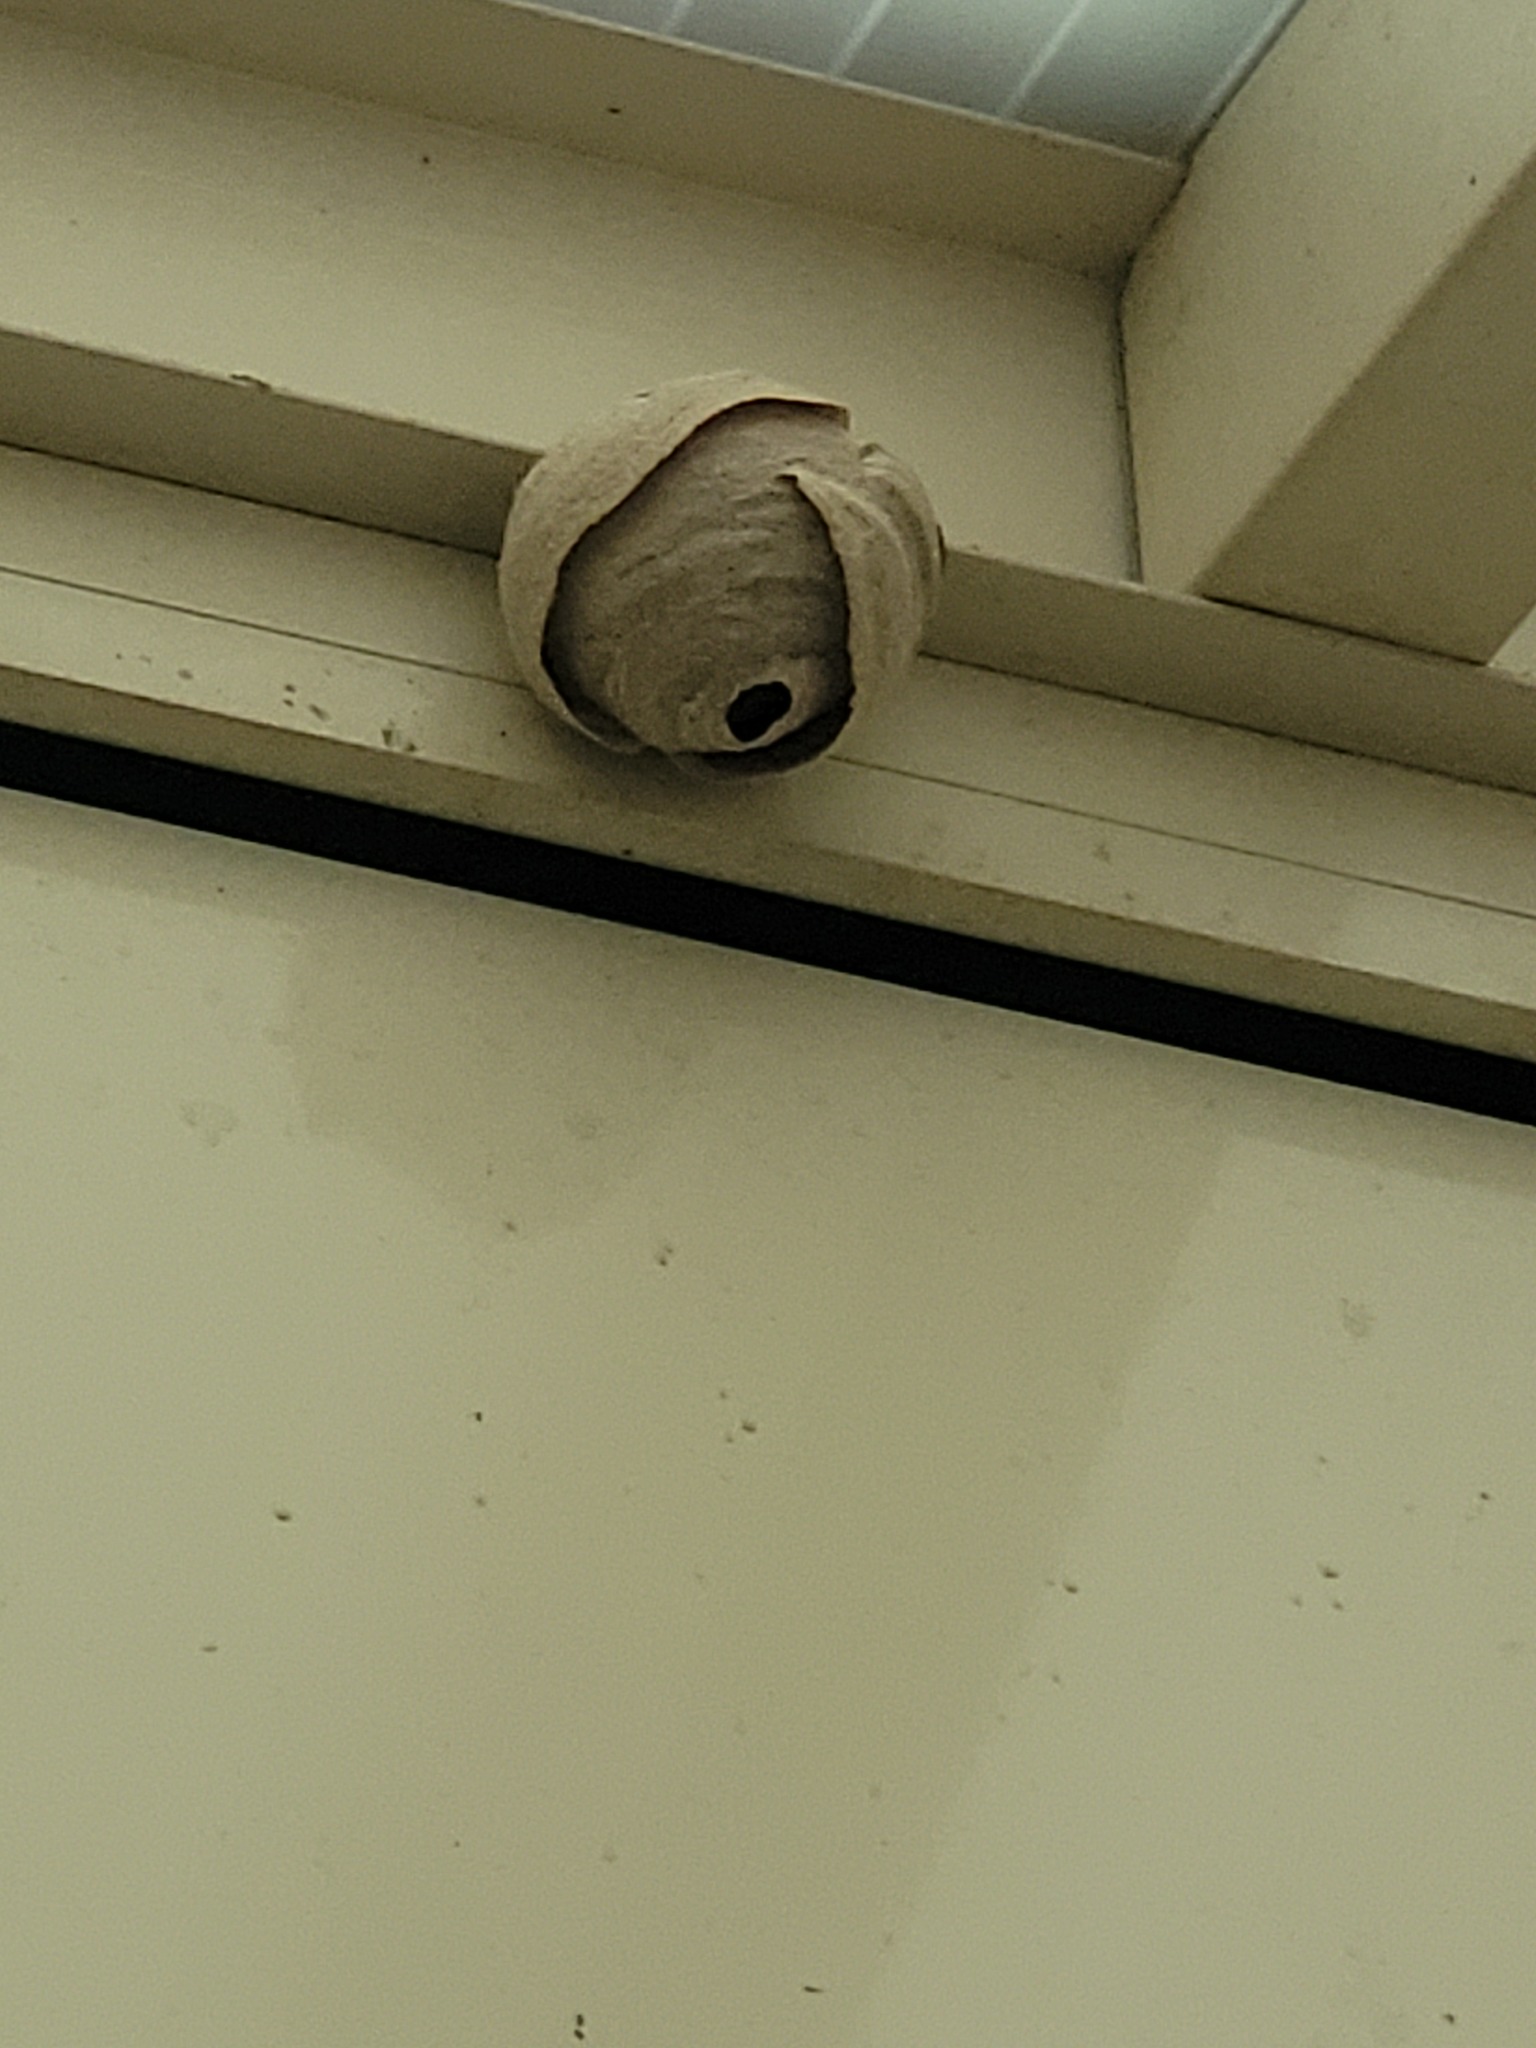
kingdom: Animalia
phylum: Arthropoda
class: Insecta
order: Hymenoptera
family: Vespidae
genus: Vespa
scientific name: Vespa velutina
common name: Asian hornet
